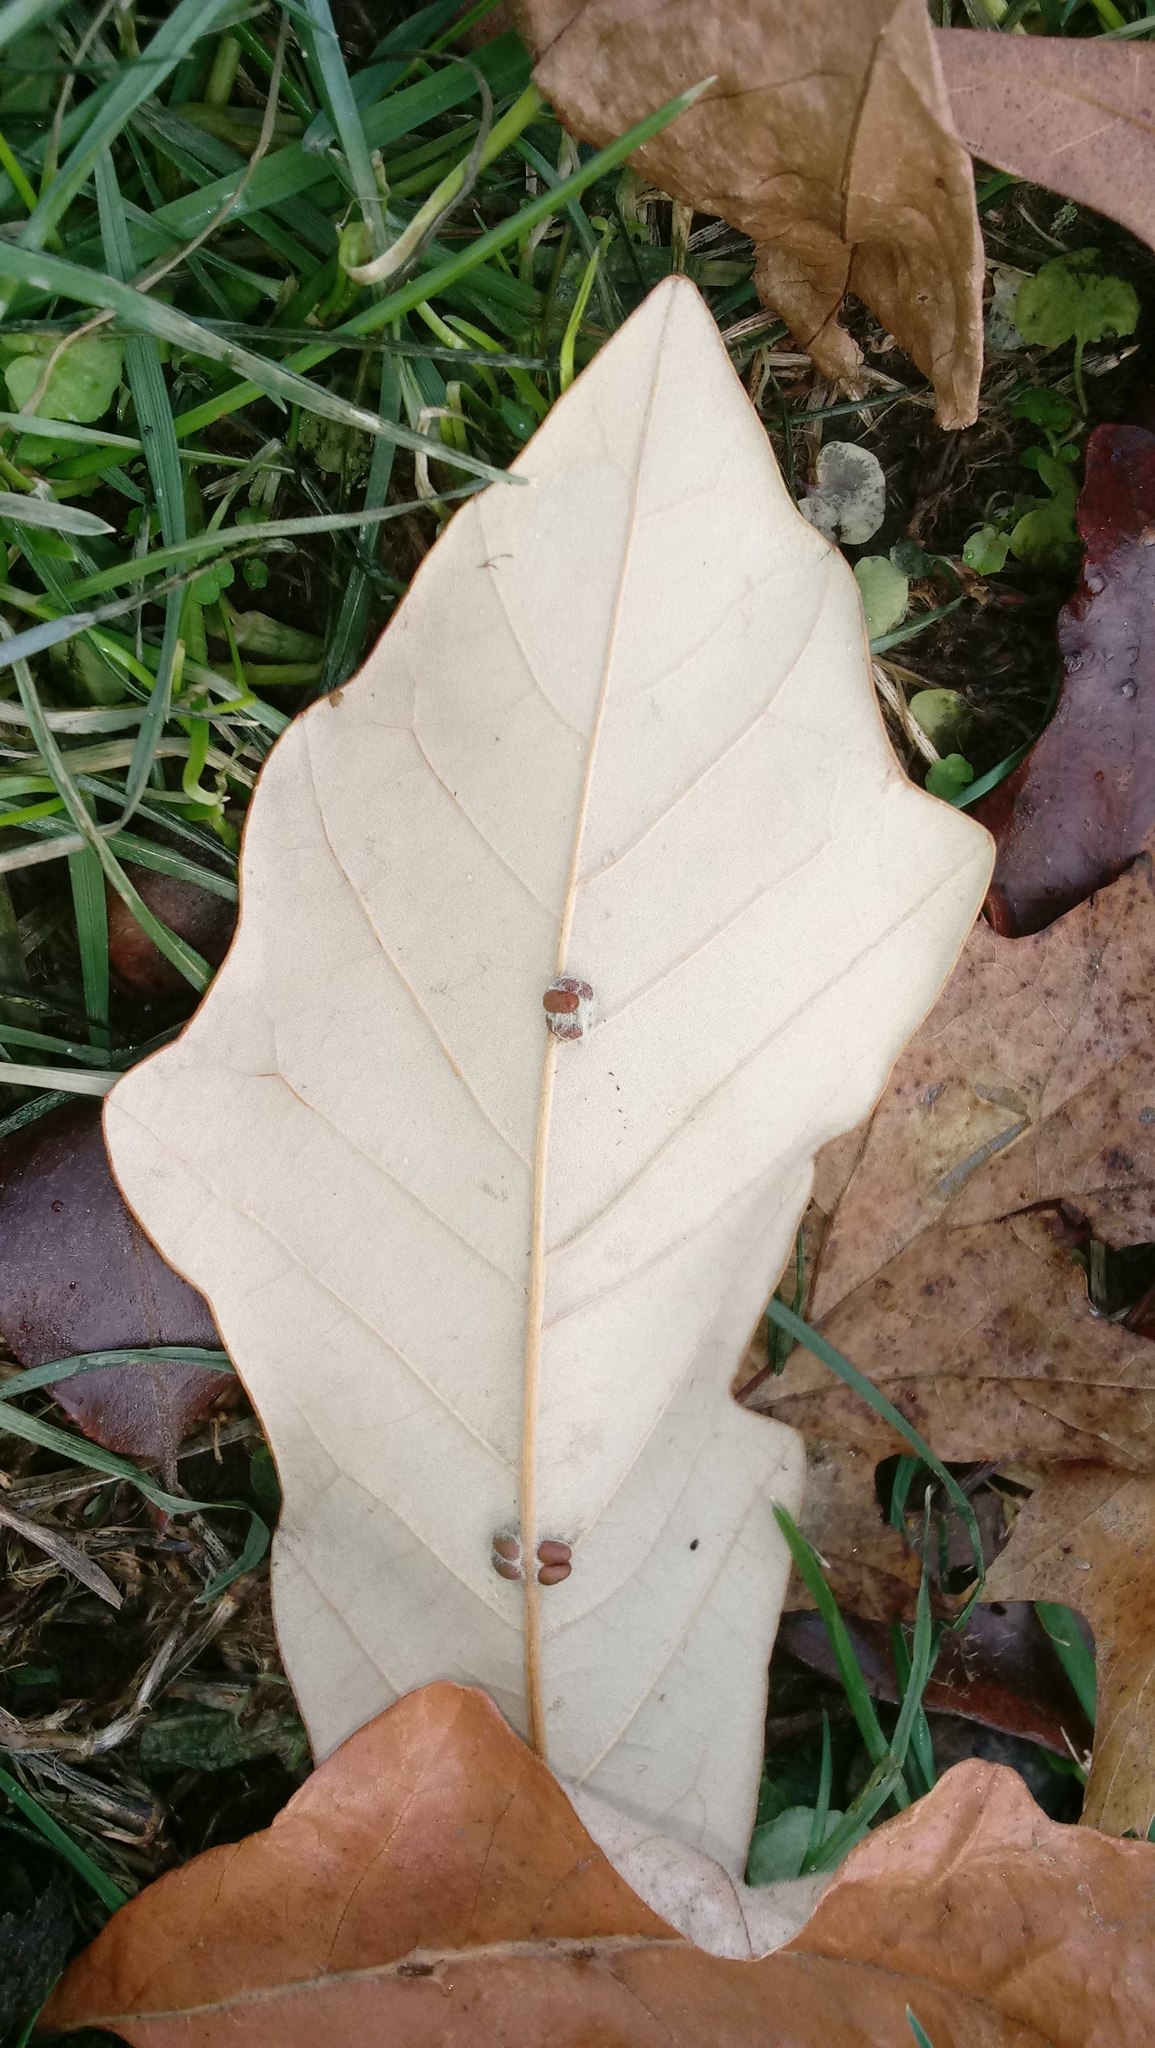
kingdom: Animalia
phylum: Arthropoda
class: Insecta
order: Hymenoptera
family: Cynipidae
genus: Andricus
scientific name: Andricus Druon ignotum
